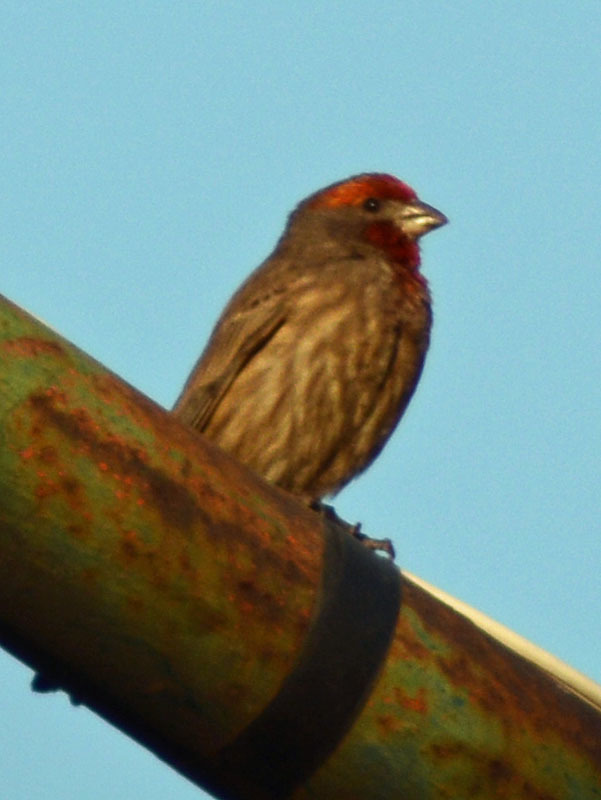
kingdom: Animalia
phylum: Chordata
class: Aves
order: Passeriformes
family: Fringillidae
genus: Haemorhous
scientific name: Haemorhous mexicanus
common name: House finch
